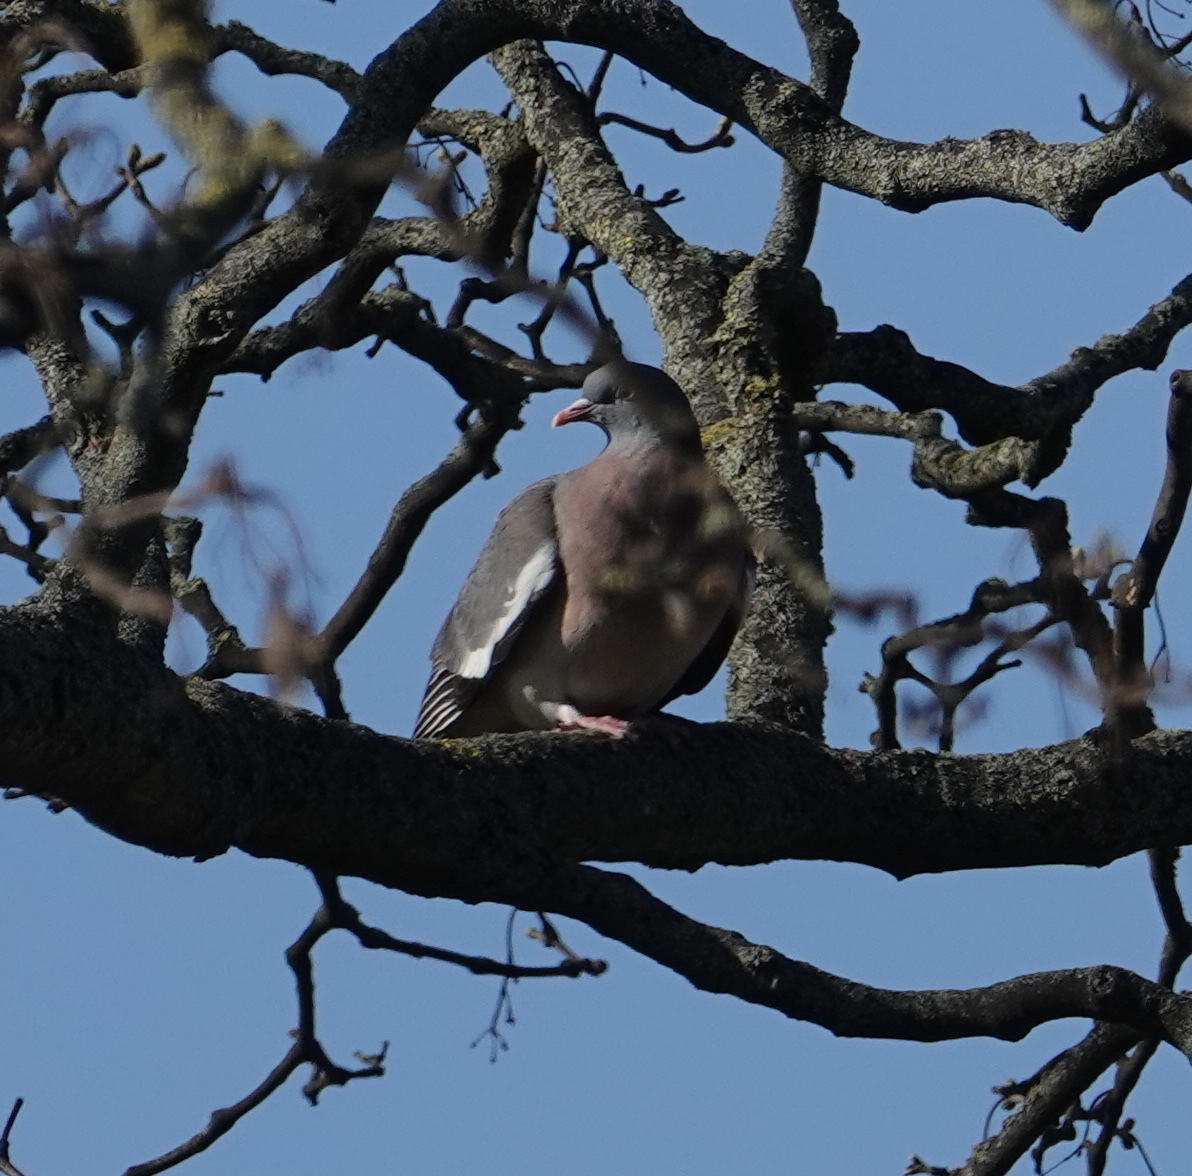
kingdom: Animalia
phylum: Chordata
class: Aves
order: Columbiformes
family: Columbidae
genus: Columba
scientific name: Columba palumbus
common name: Common wood pigeon
